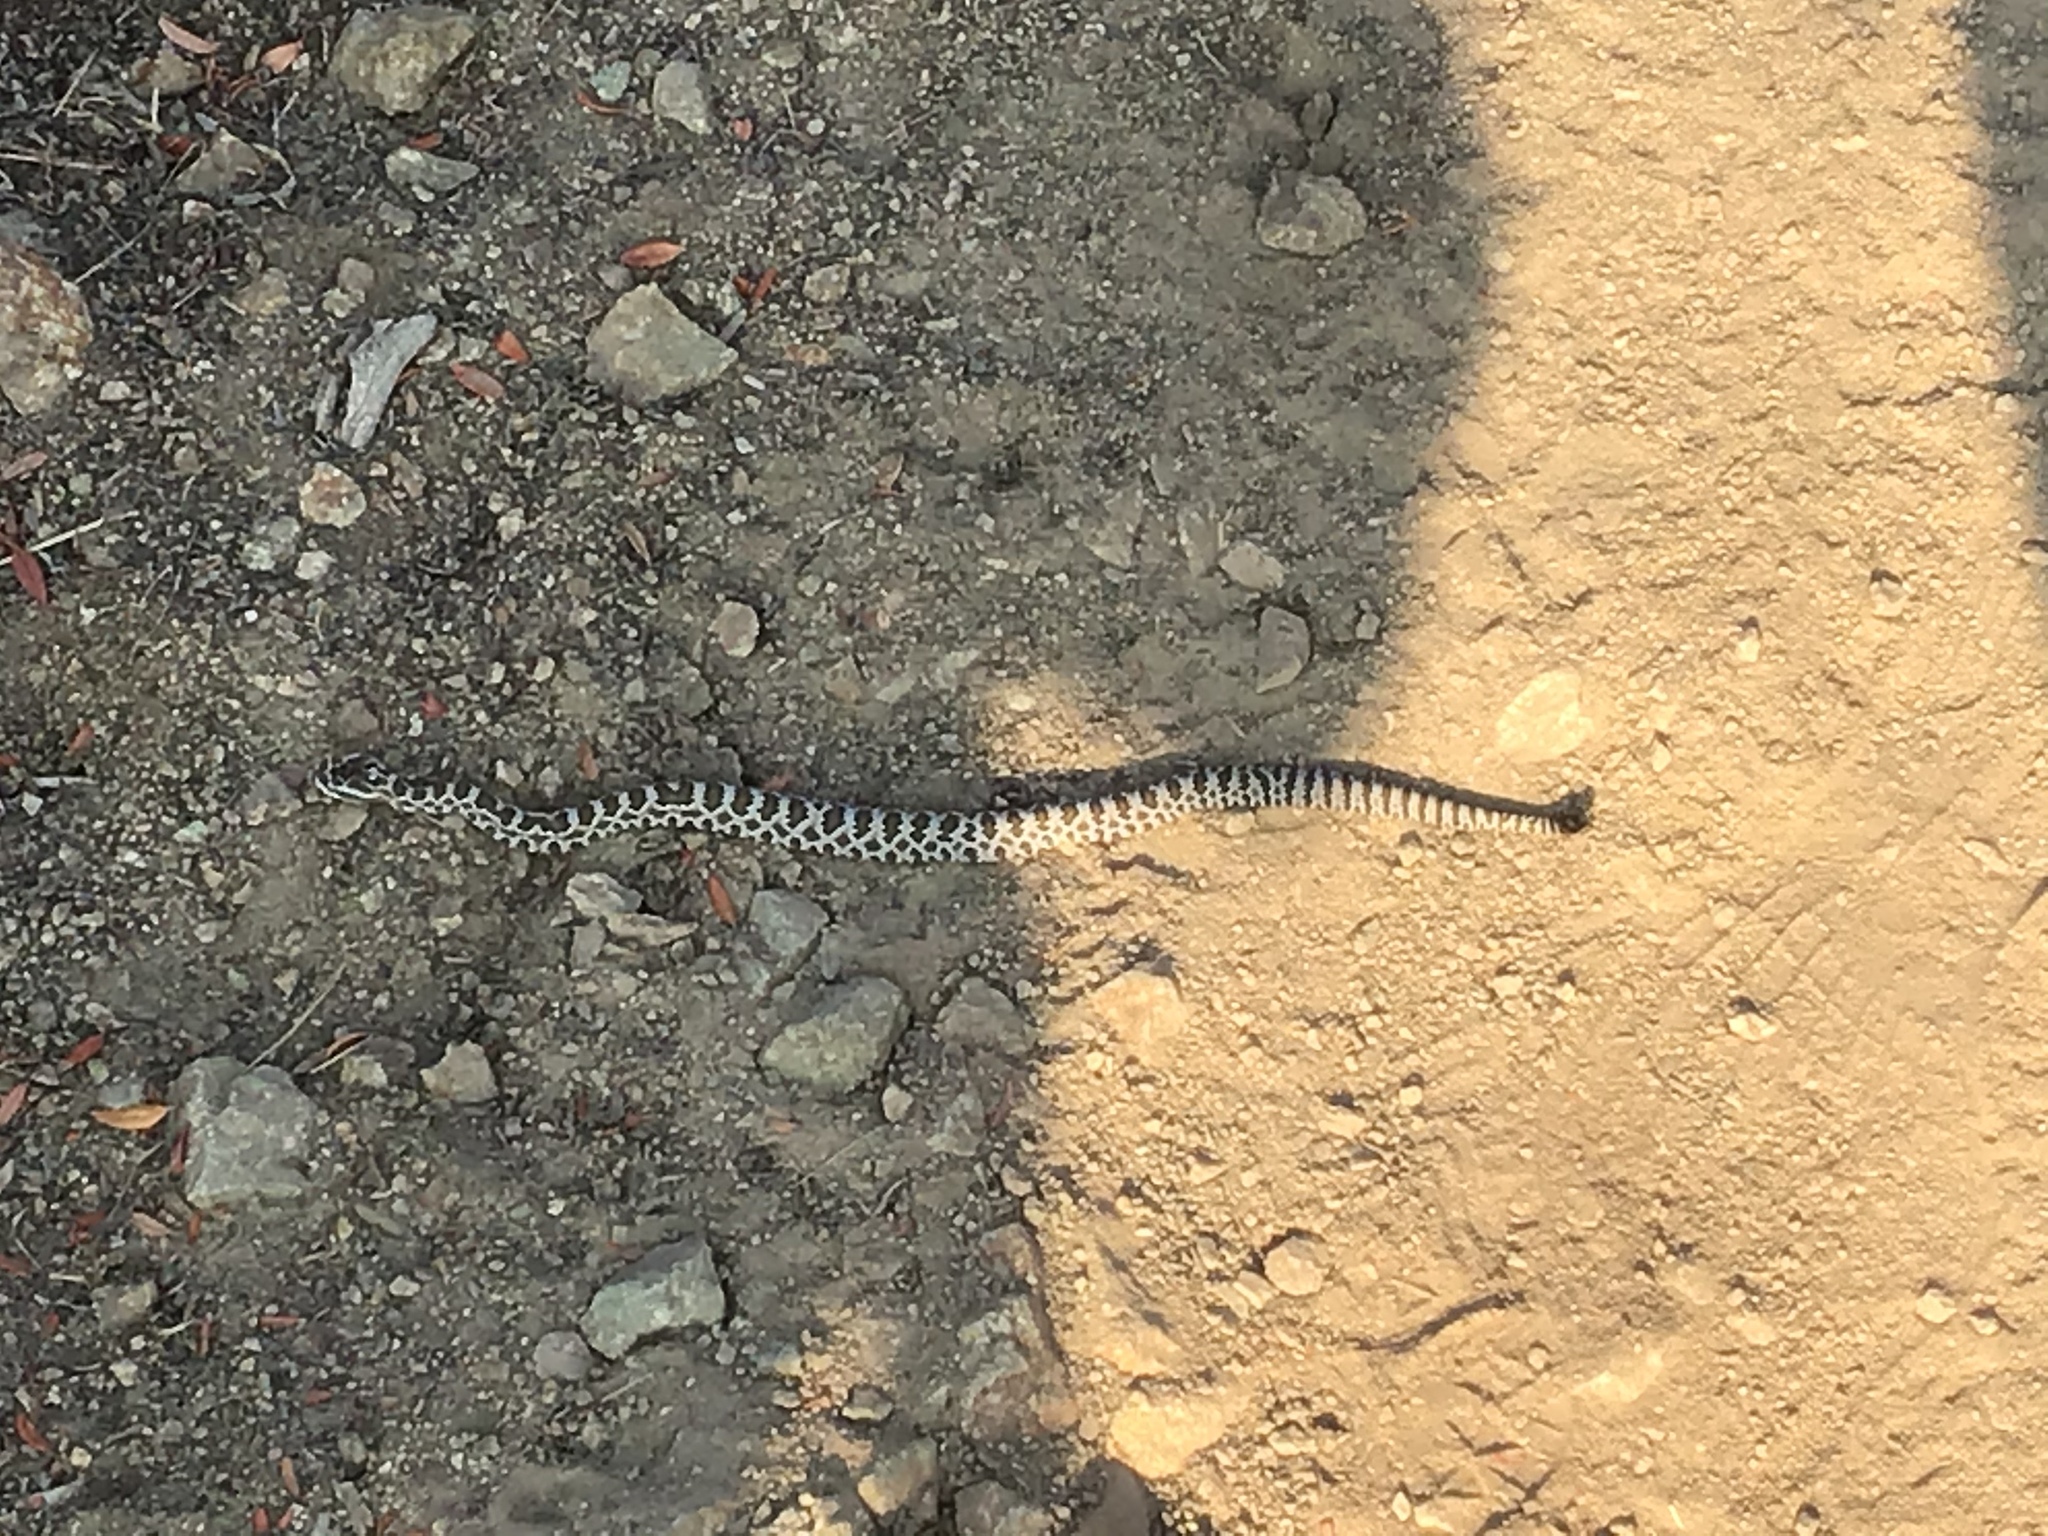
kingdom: Animalia
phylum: Chordata
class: Squamata
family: Viperidae
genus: Crotalus
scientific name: Crotalus oreganus
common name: Abyssus
